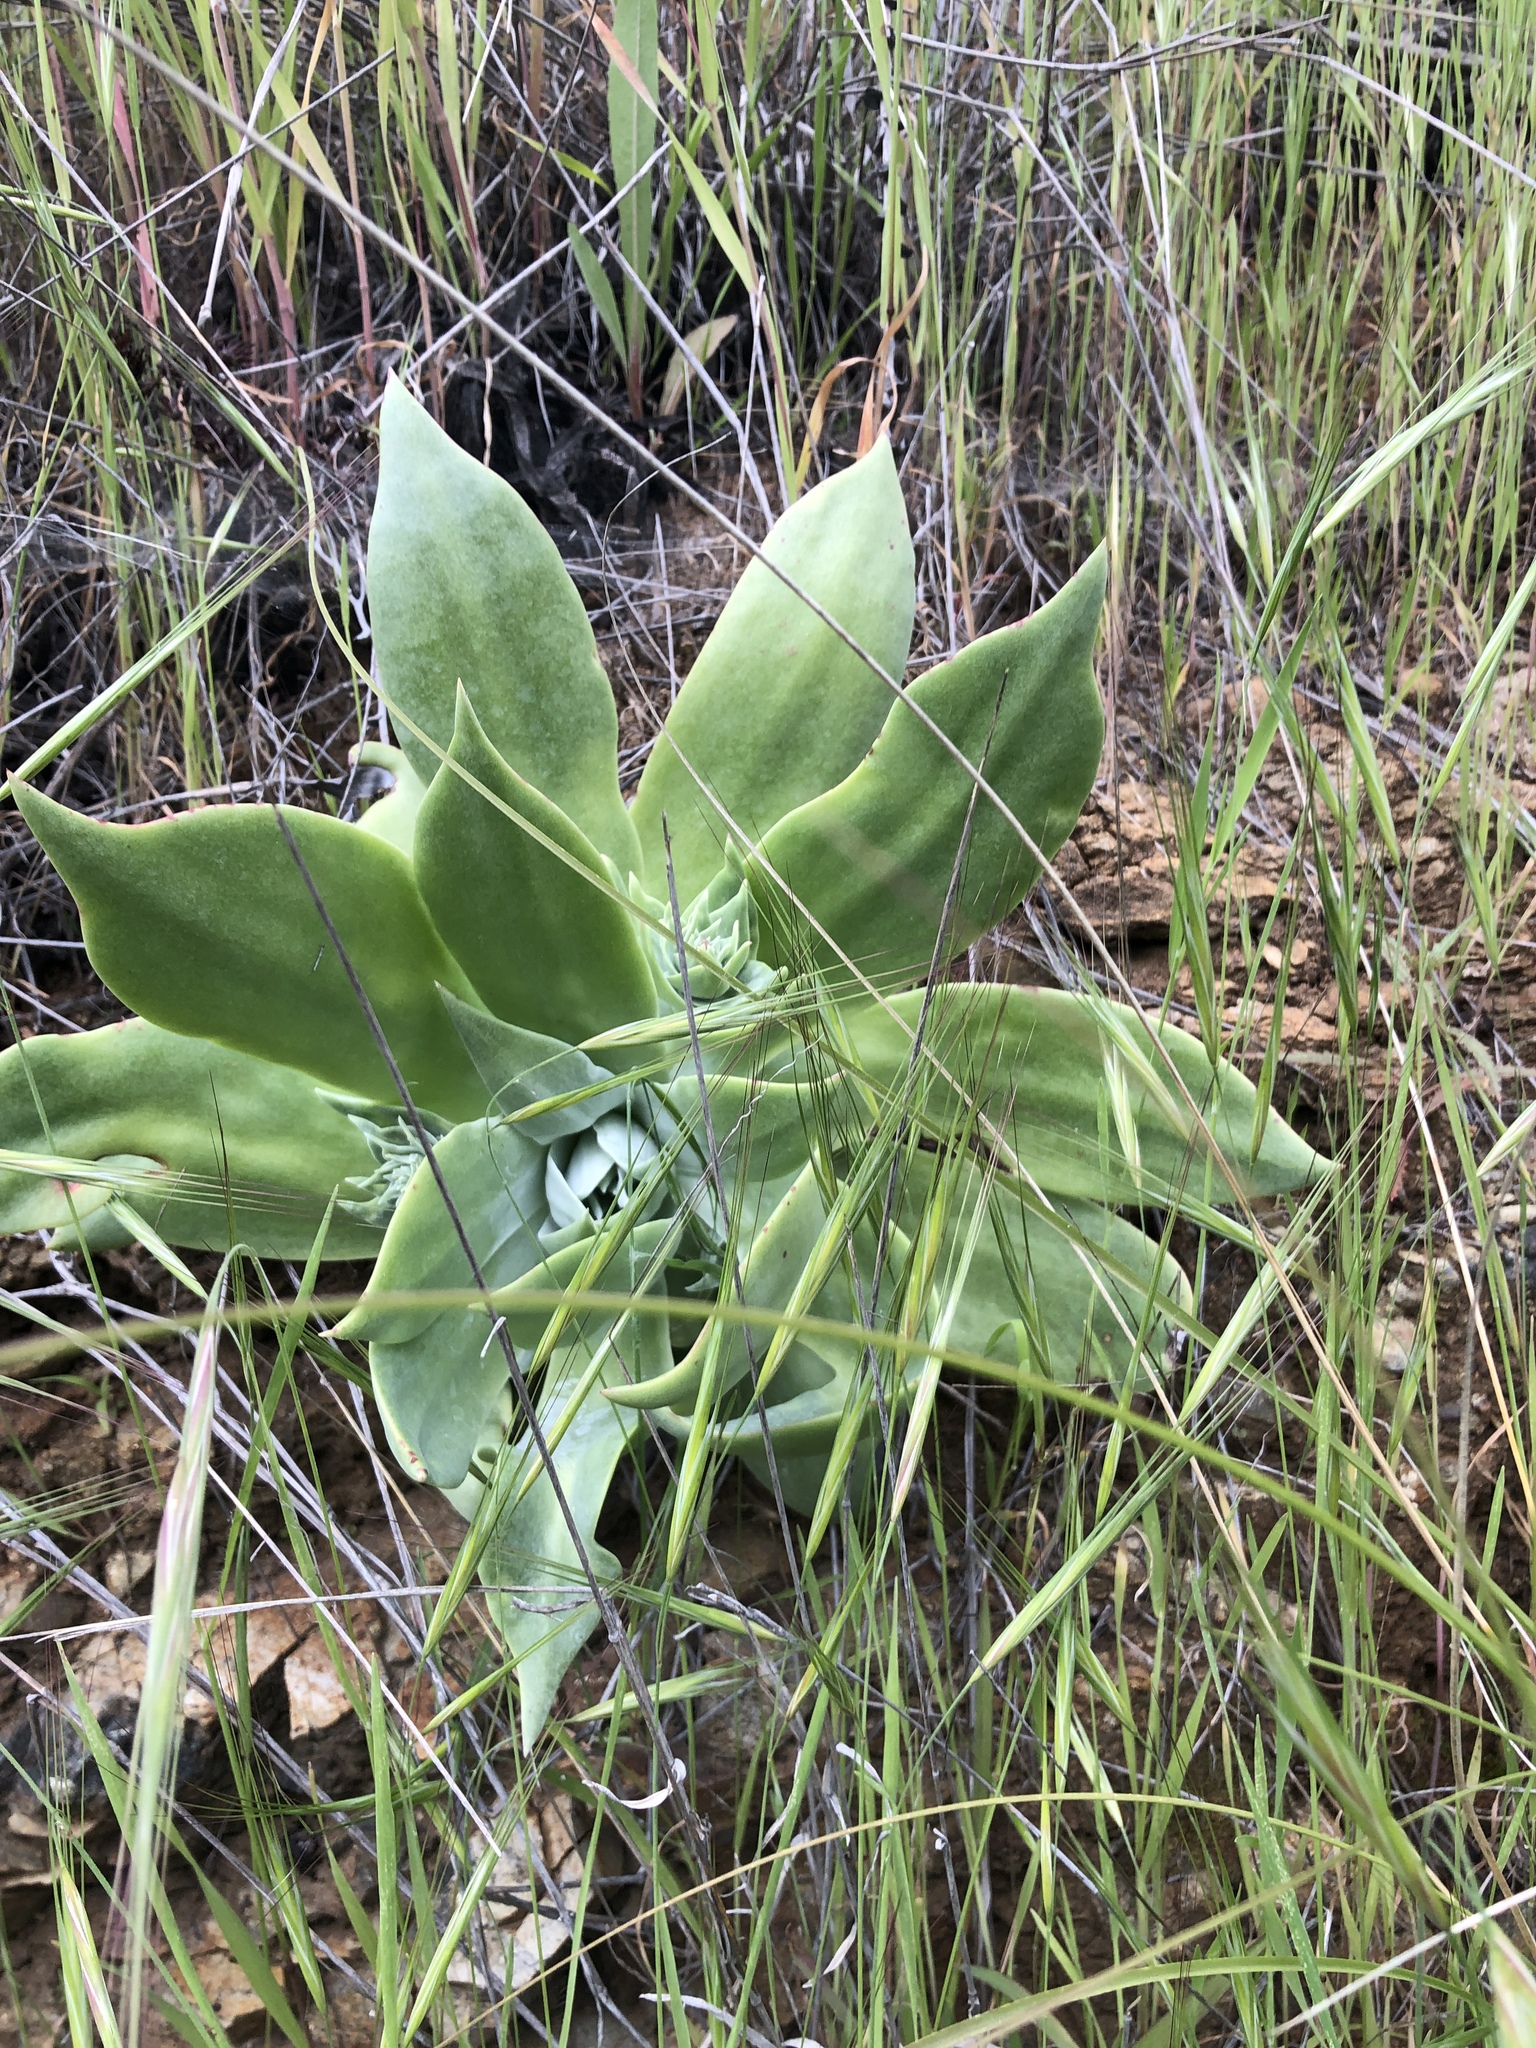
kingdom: Plantae
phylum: Tracheophyta
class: Magnoliopsida
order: Saxifragales
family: Crassulaceae
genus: Dudleya
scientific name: Dudleya pulverulenta
